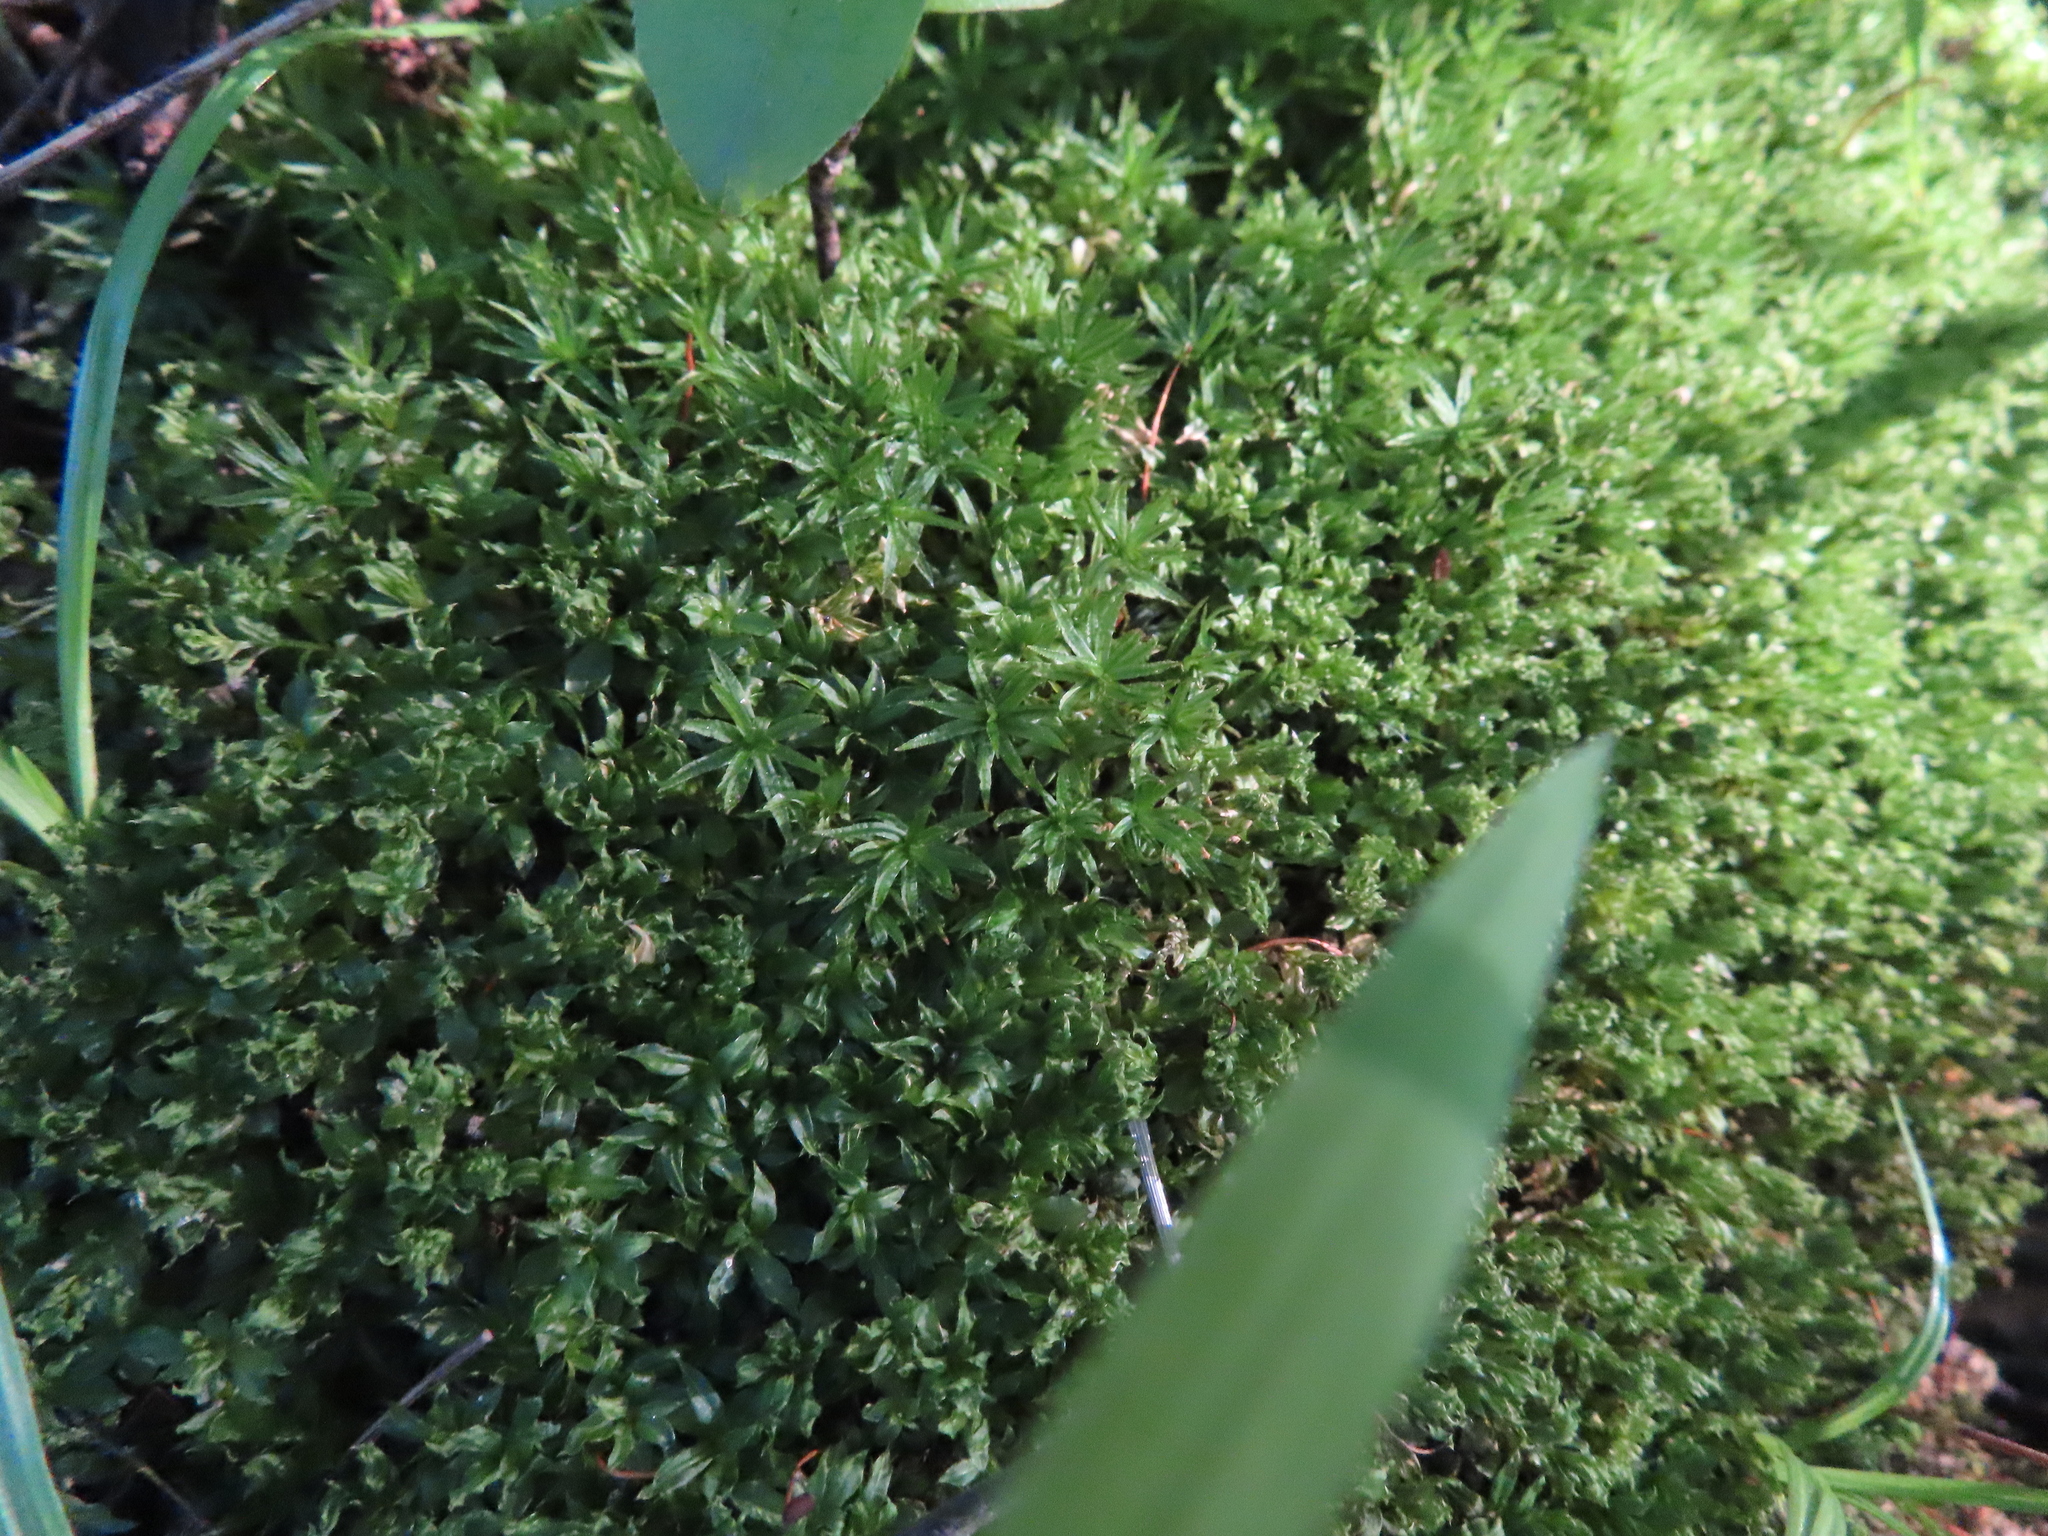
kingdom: Plantae
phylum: Bryophyta
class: Polytrichopsida
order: Polytrichales
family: Polytrichaceae
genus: Atrichum
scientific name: Atrichum
